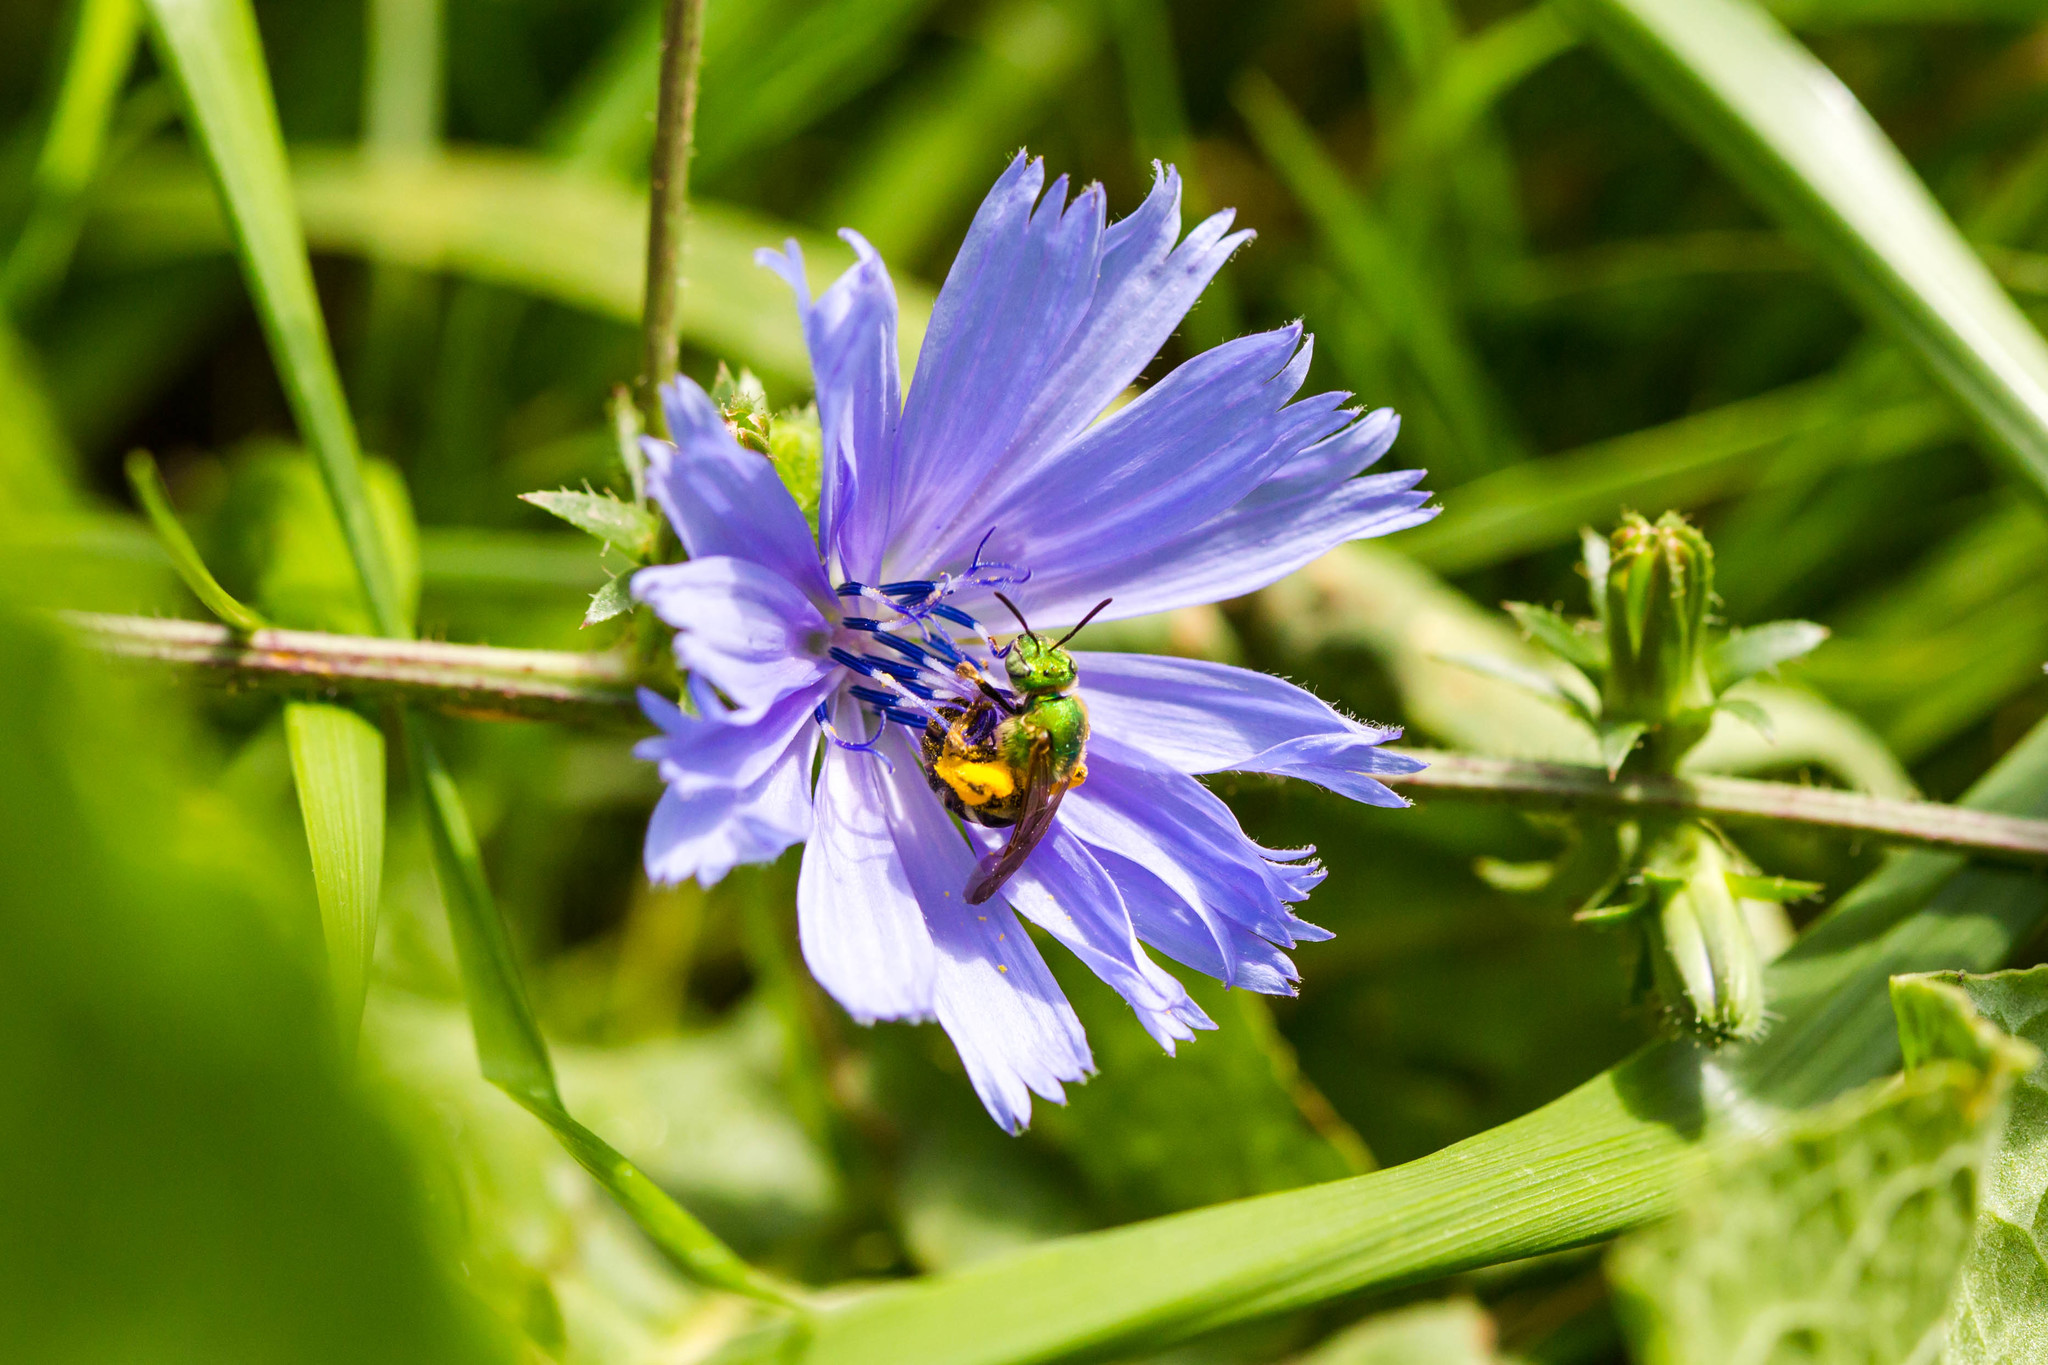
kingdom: Animalia
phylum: Arthropoda
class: Insecta
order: Hymenoptera
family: Halictidae
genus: Agapostemon
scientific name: Agapostemon virescens
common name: Bicolored striped sweat bee
